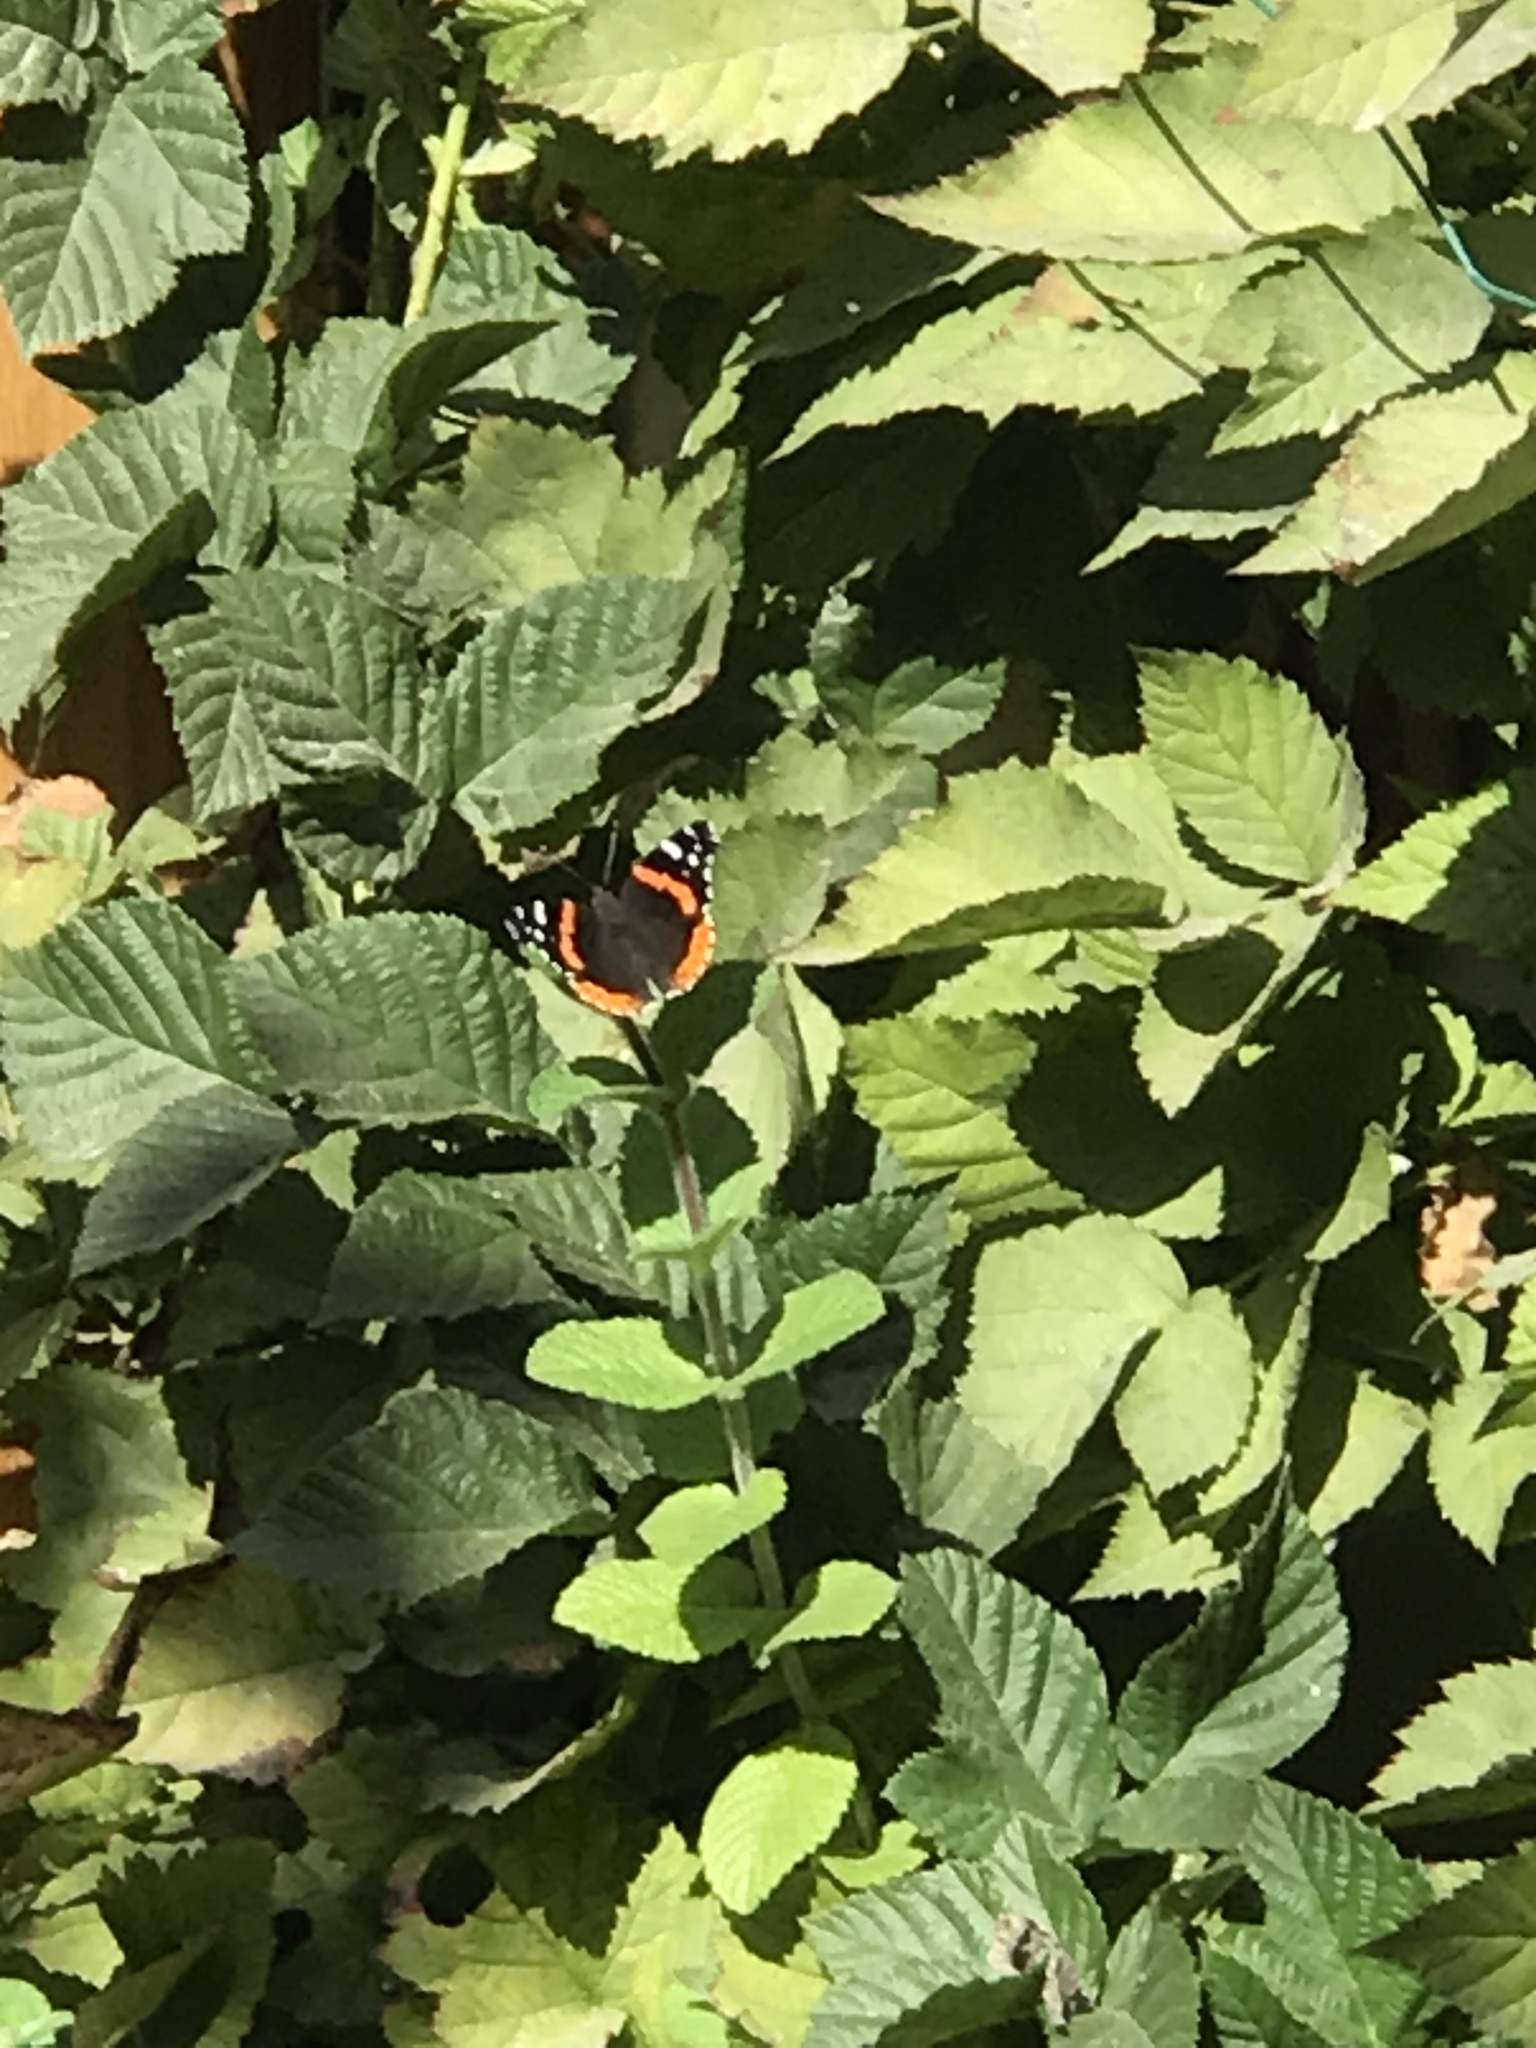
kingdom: Animalia
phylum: Arthropoda
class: Insecta
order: Lepidoptera
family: Nymphalidae
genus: Vanessa
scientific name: Vanessa atalanta
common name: Red admiral
